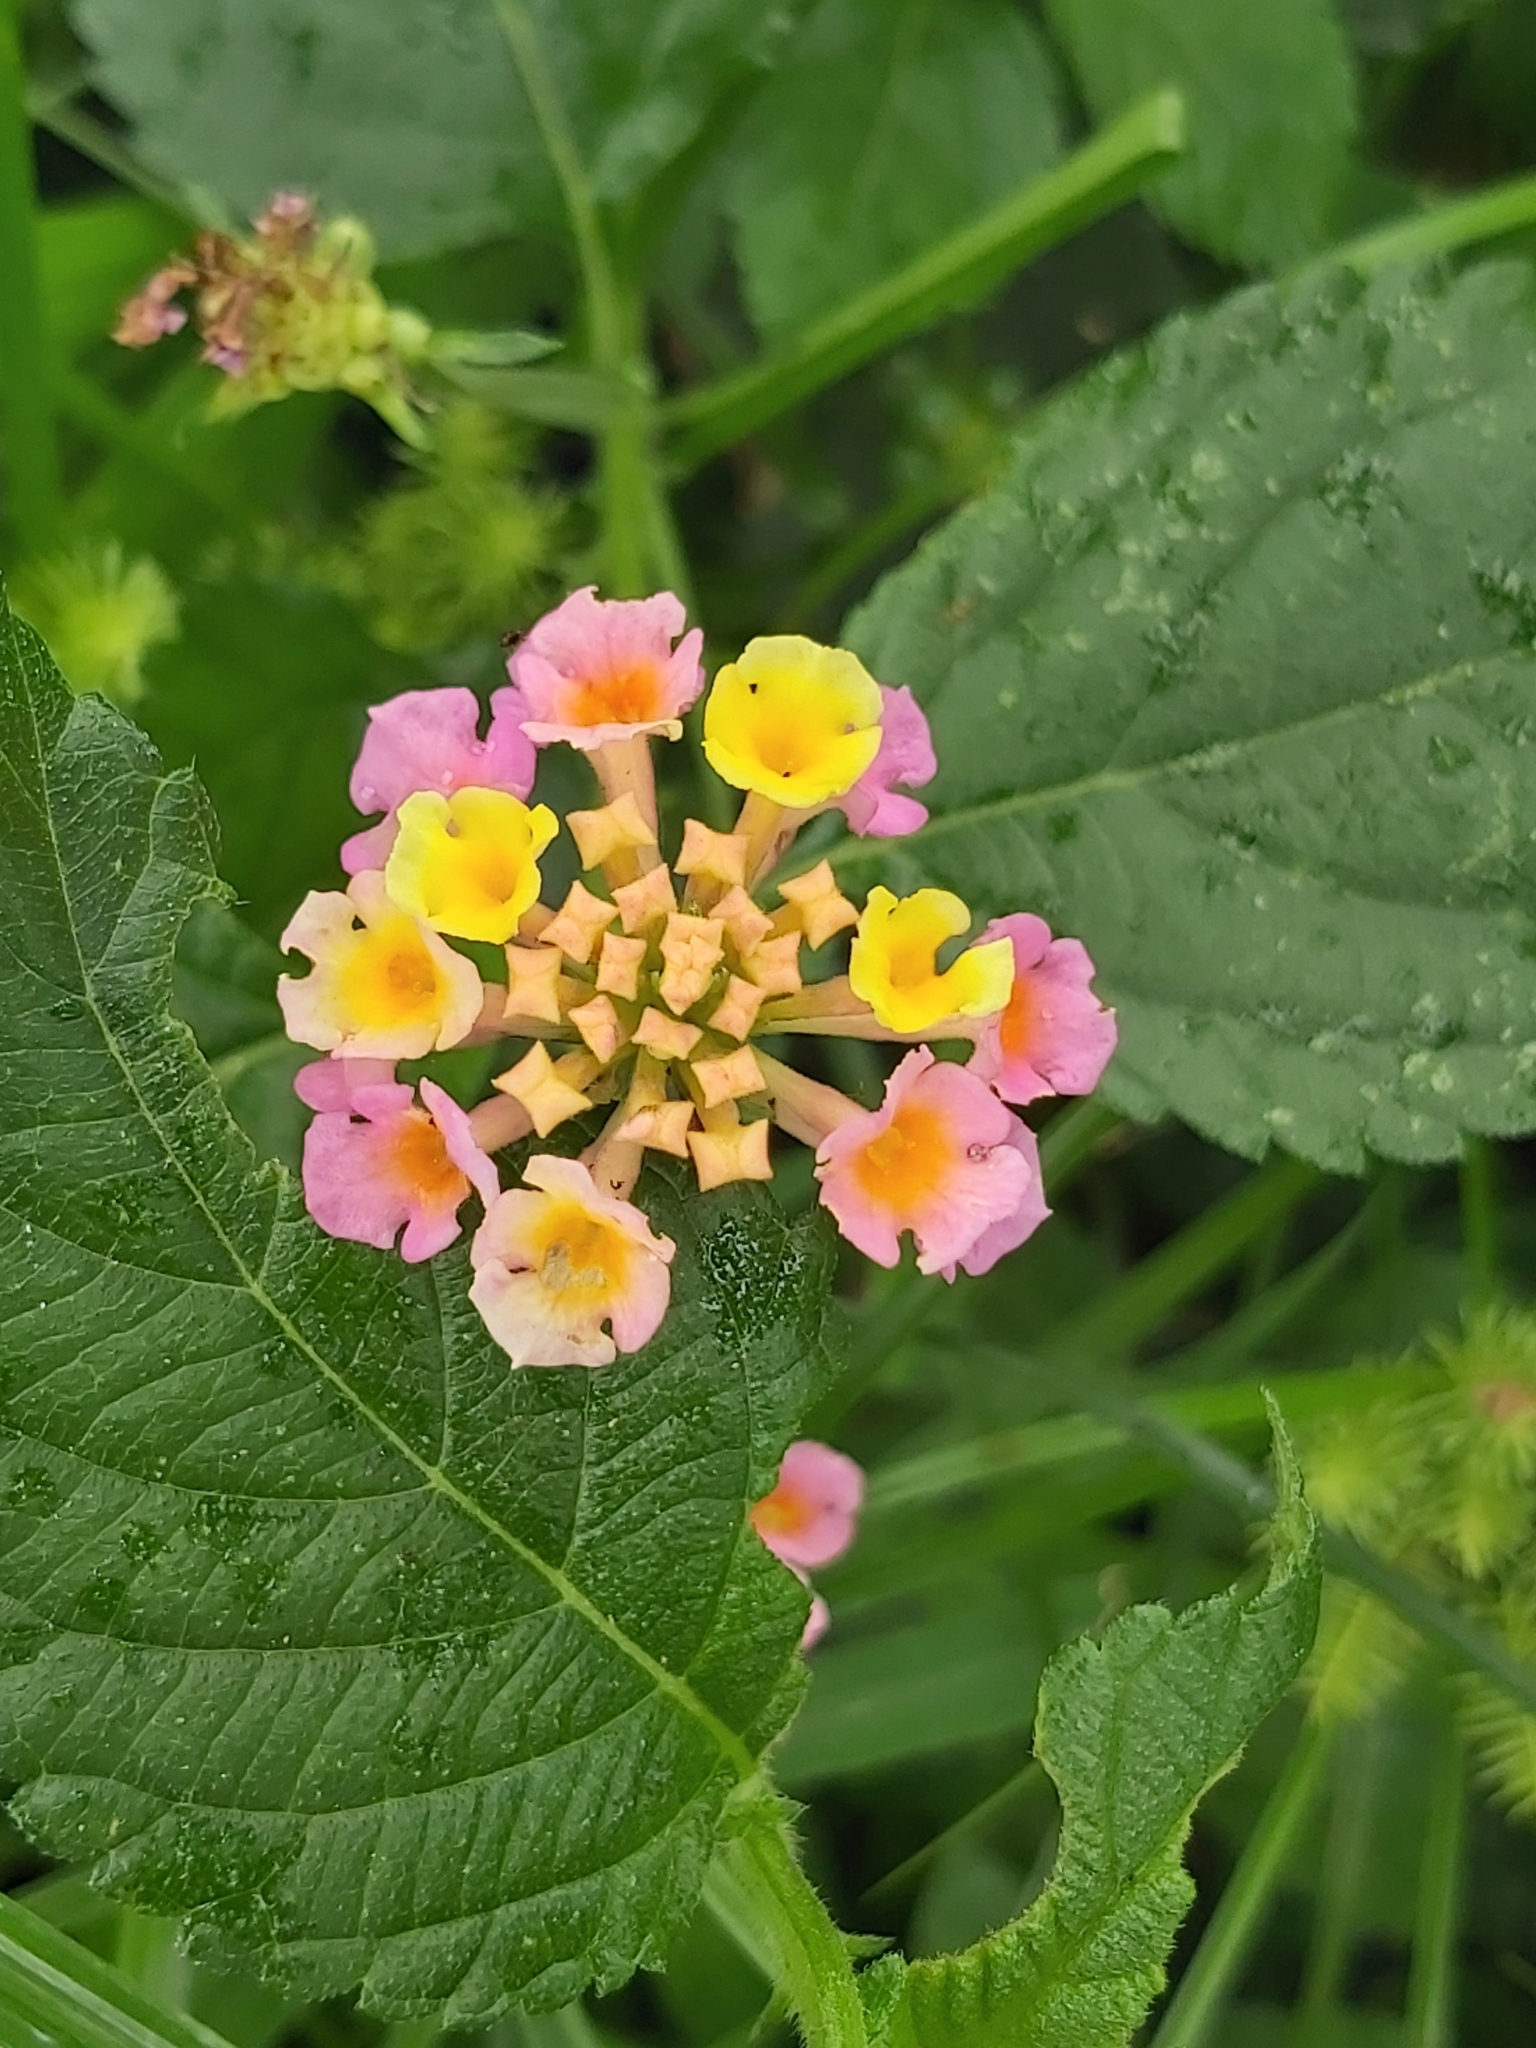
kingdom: Plantae
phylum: Tracheophyta
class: Magnoliopsida
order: Lamiales
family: Verbenaceae
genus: Lantana
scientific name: Lantana camara
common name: Lantana
